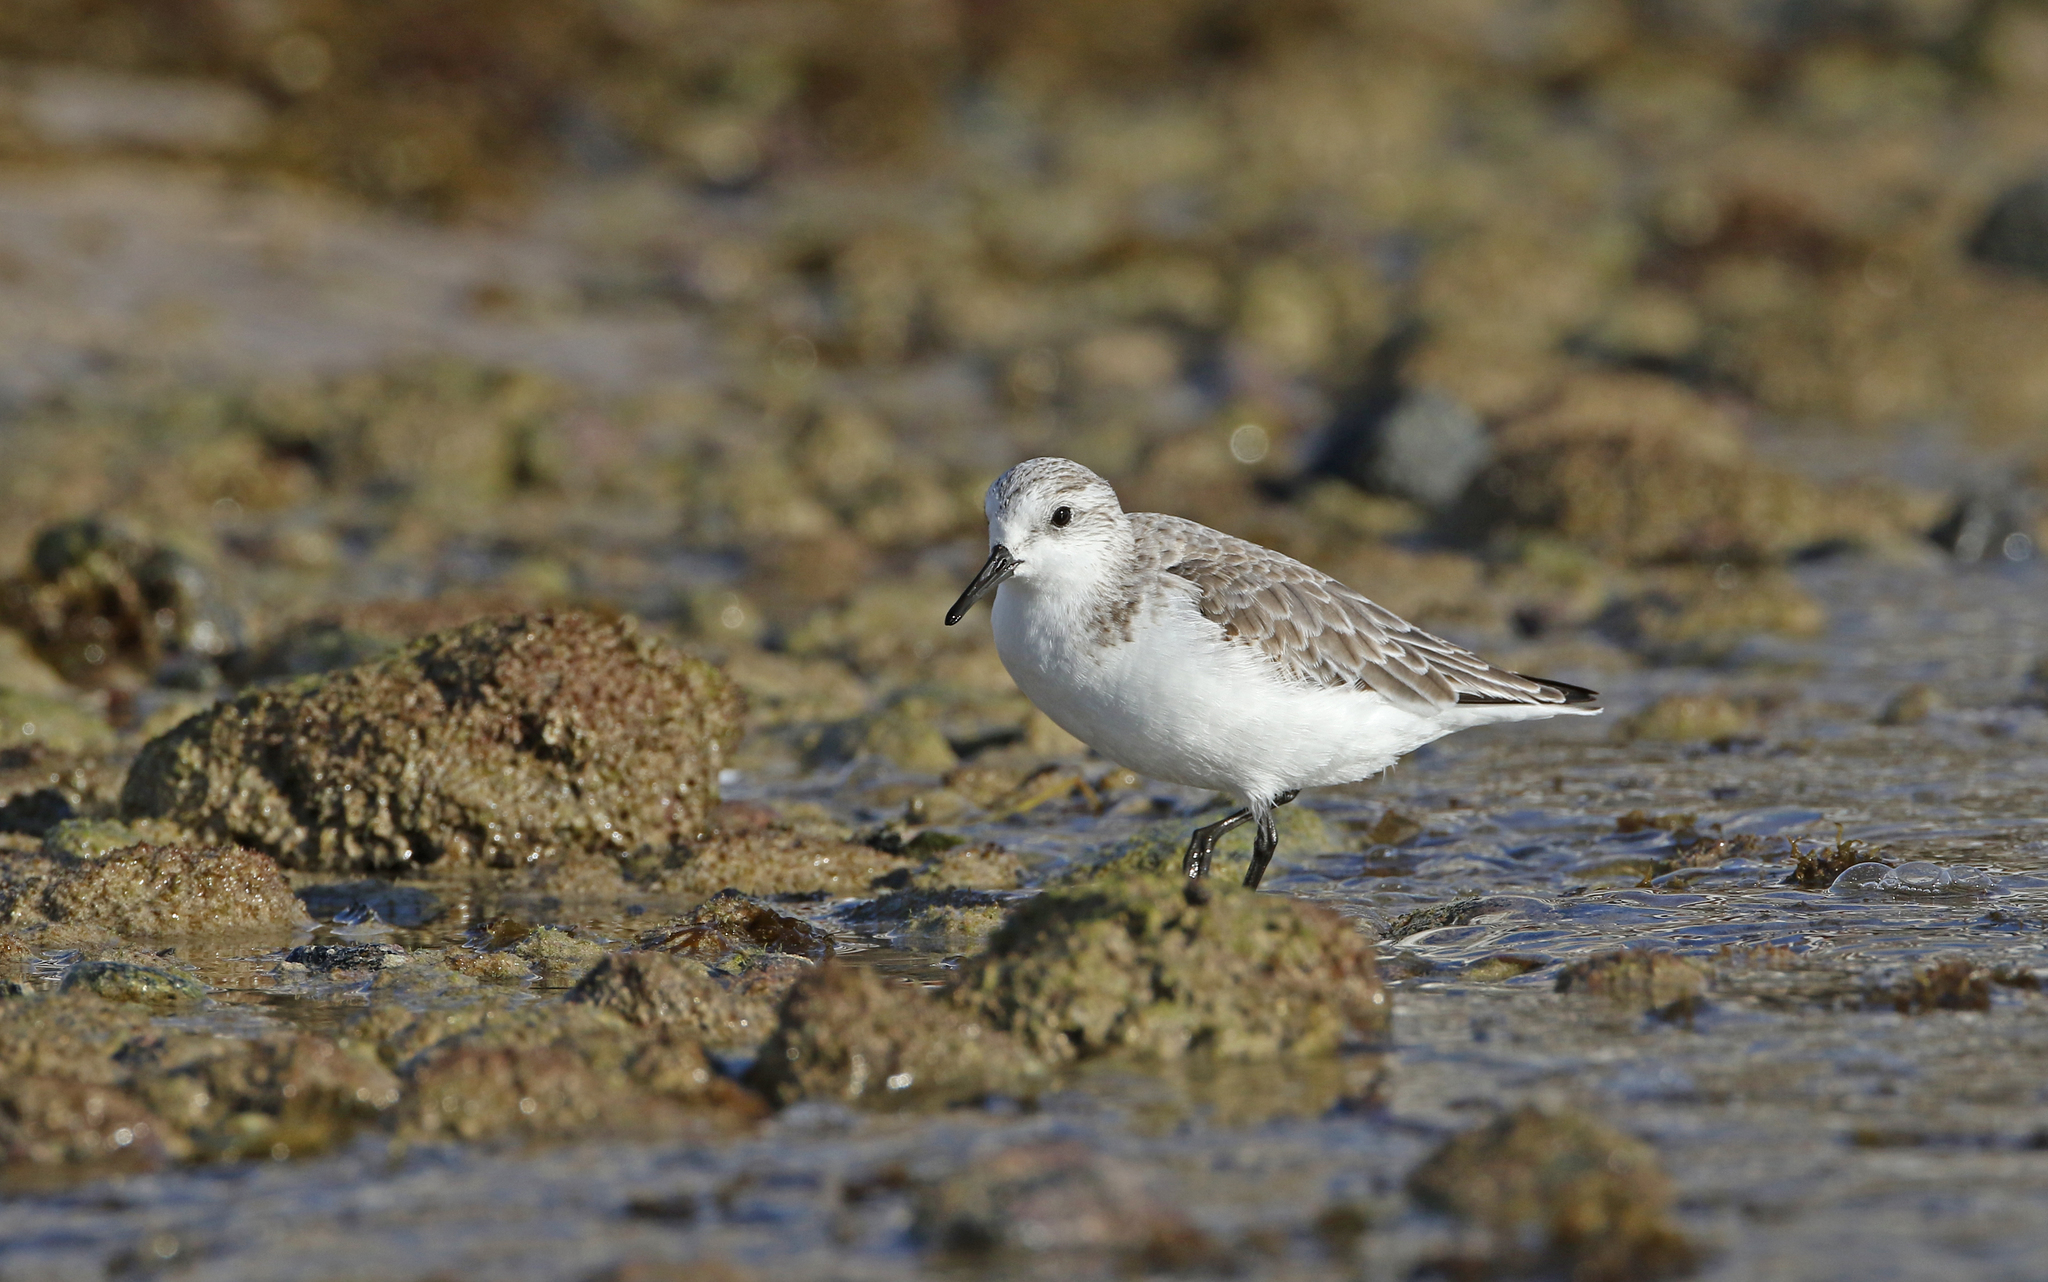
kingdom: Animalia
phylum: Chordata
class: Aves
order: Charadriiformes
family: Scolopacidae
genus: Calidris
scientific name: Calidris alba
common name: Sanderling
